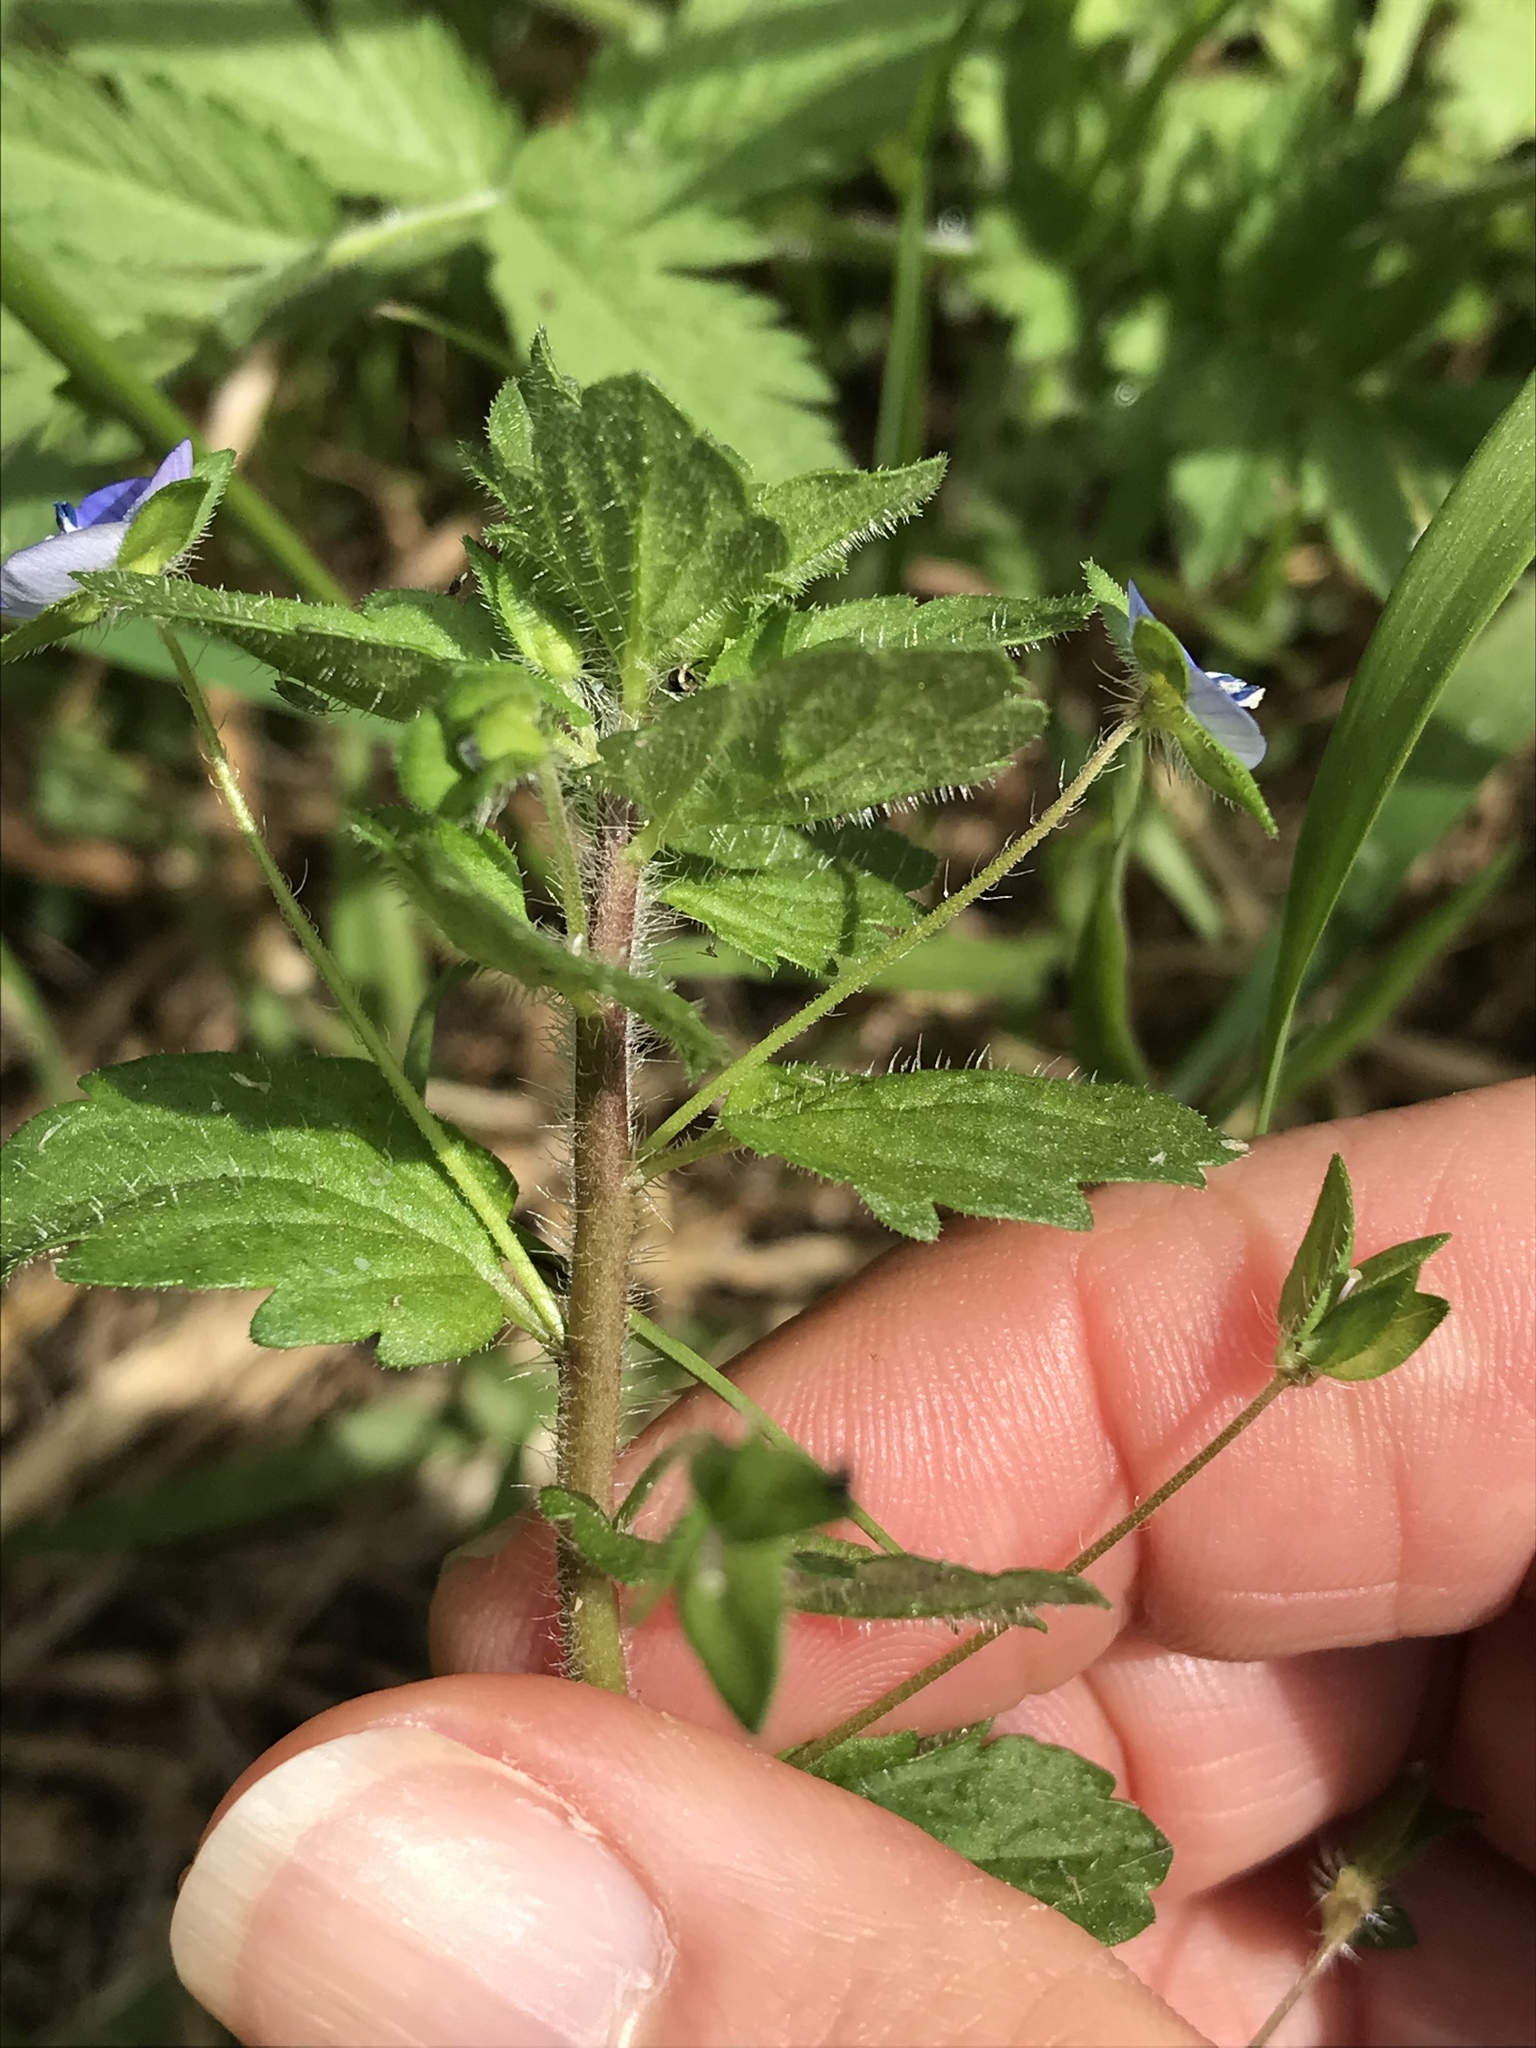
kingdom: Plantae
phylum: Tracheophyta
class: Magnoliopsida
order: Lamiales
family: Plantaginaceae
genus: Veronica
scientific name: Veronica persica
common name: Common field-speedwell
